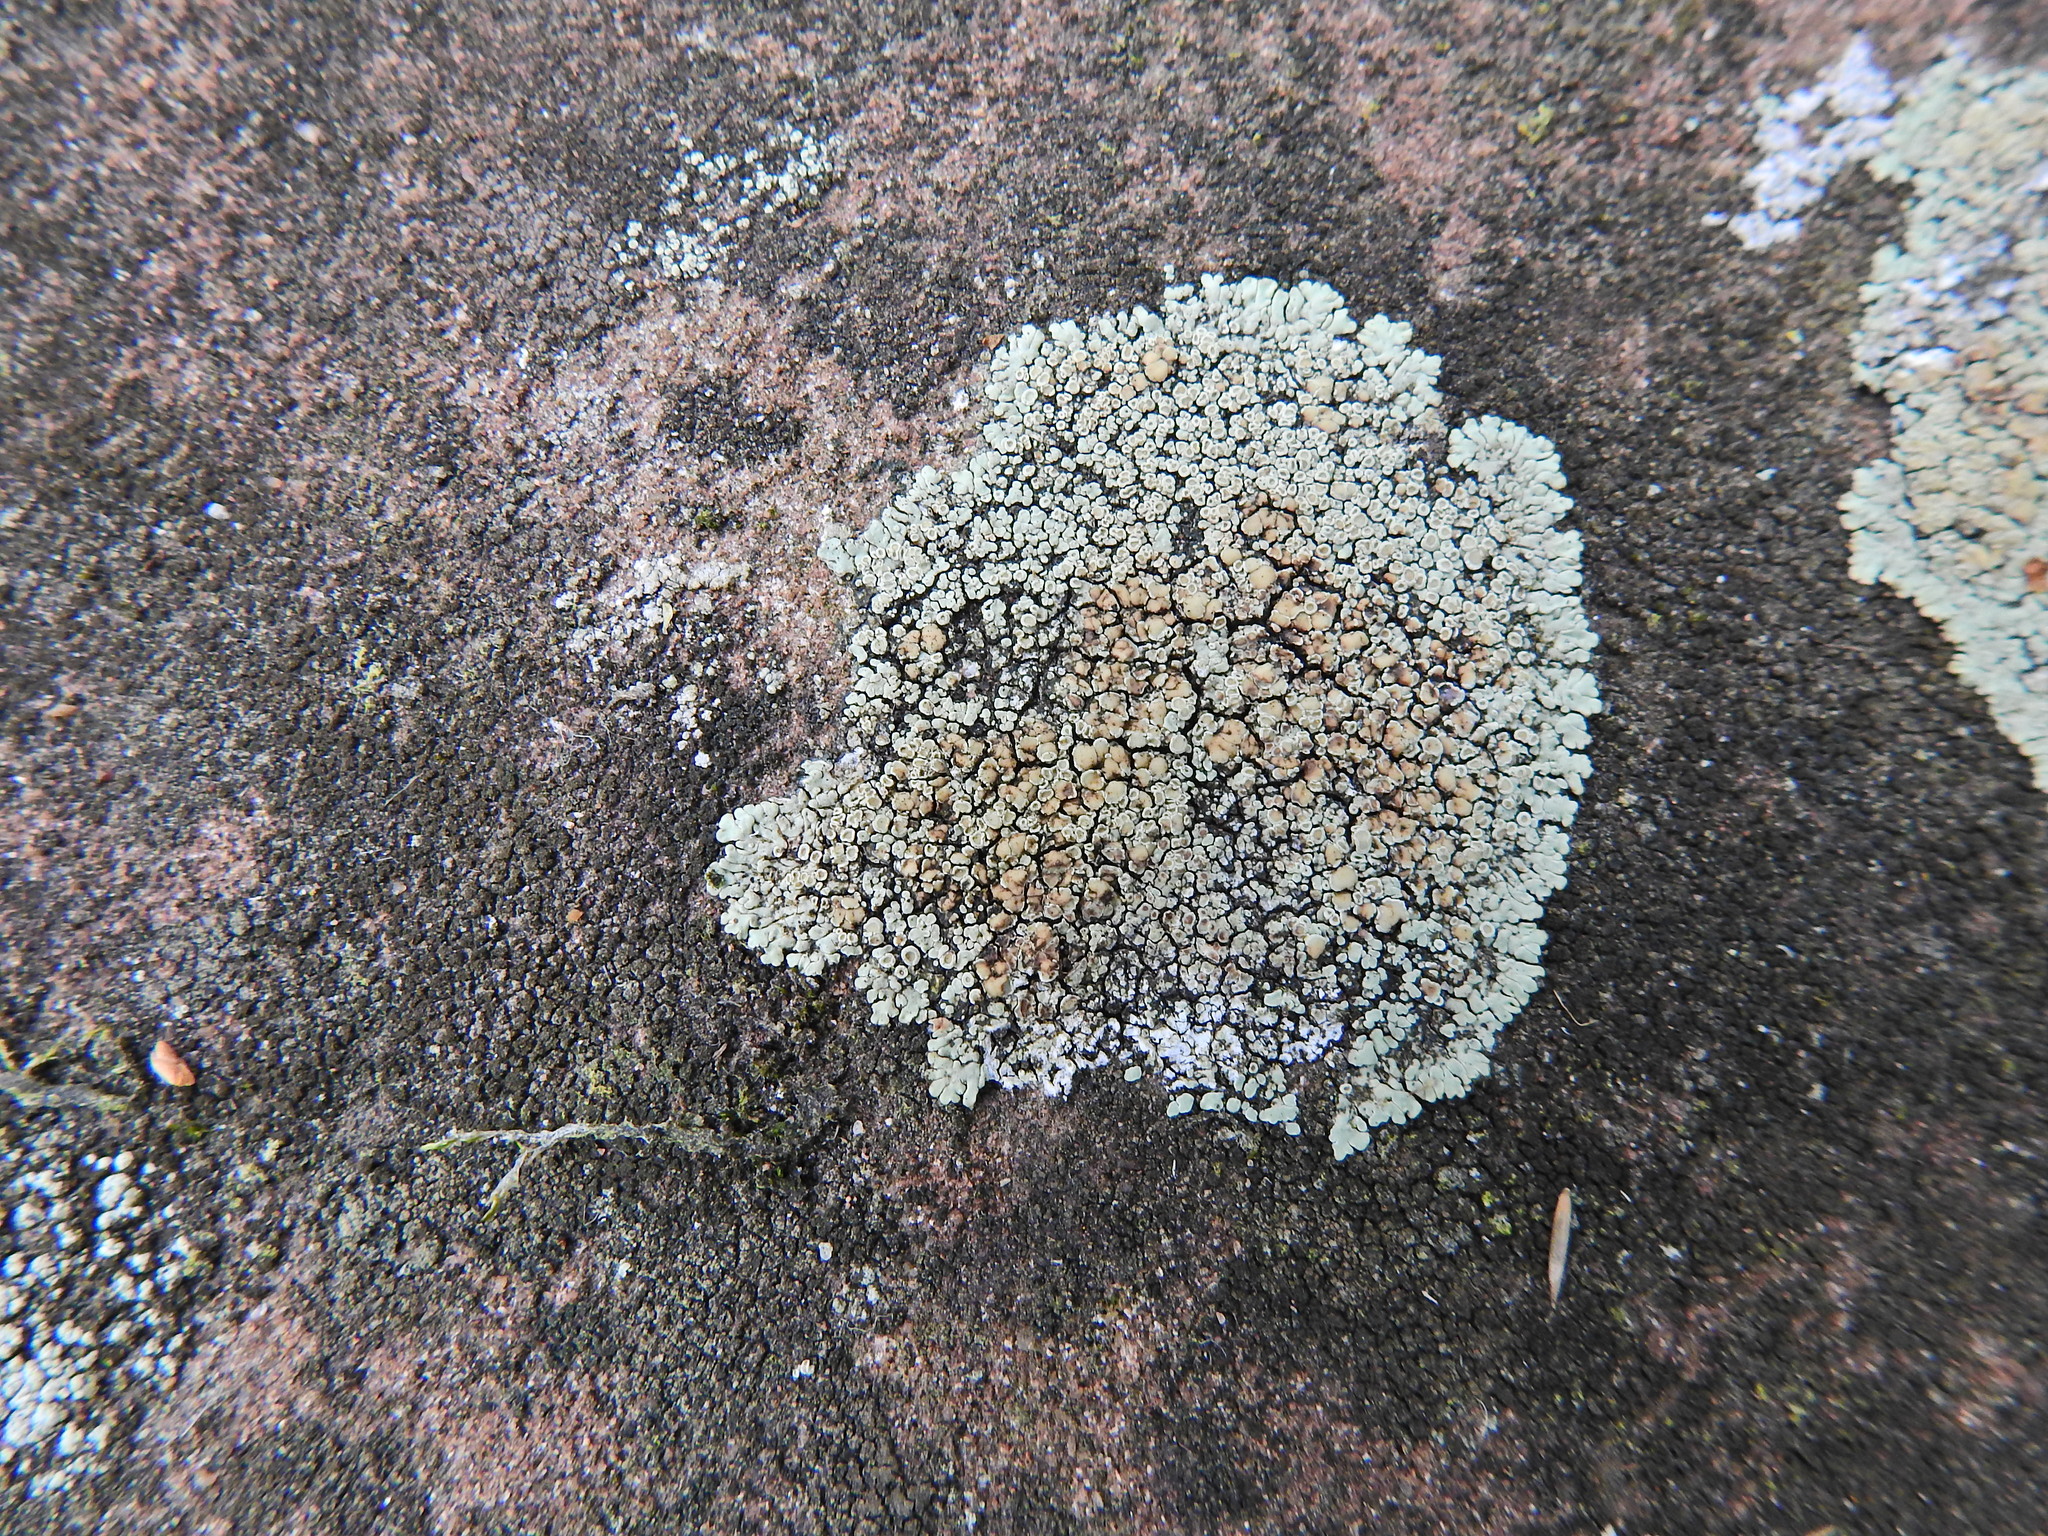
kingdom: Fungi
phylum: Ascomycota
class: Lecanoromycetes
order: Lecanorales
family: Lecanoraceae
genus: Protoparmeliopsis
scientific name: Protoparmeliopsis muralis
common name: Stonewall rim lichen
